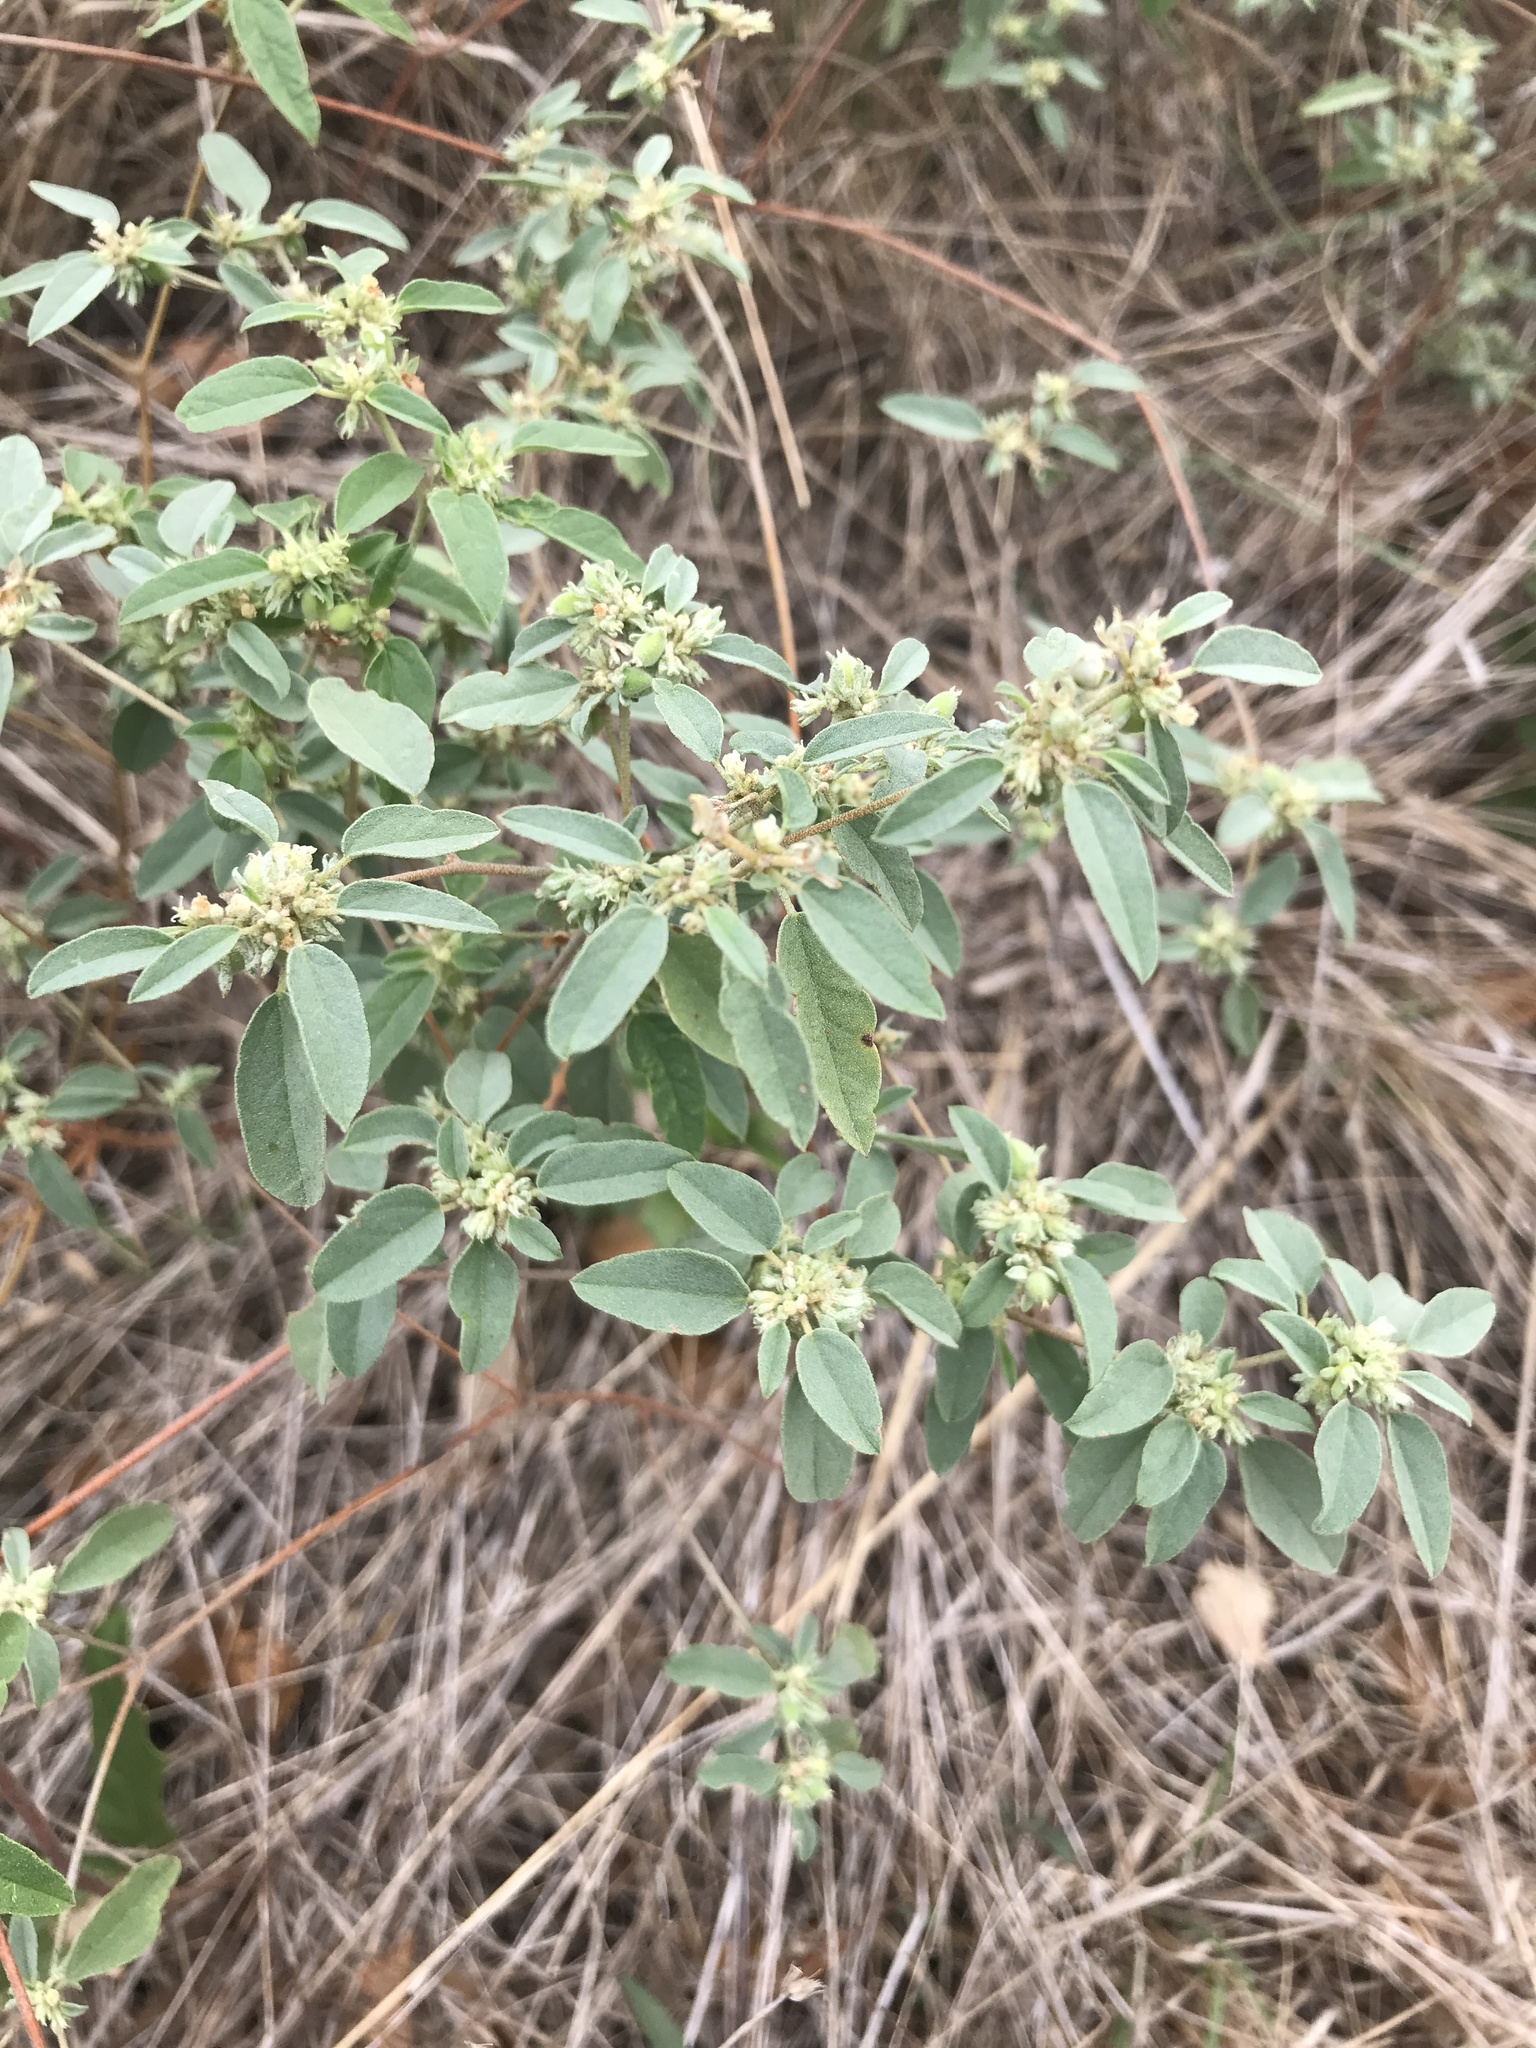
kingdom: Plantae
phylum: Tracheophyta
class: Magnoliopsida
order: Malpighiales
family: Euphorbiaceae
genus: Croton
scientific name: Croton monanthogynus
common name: One-seed croton
